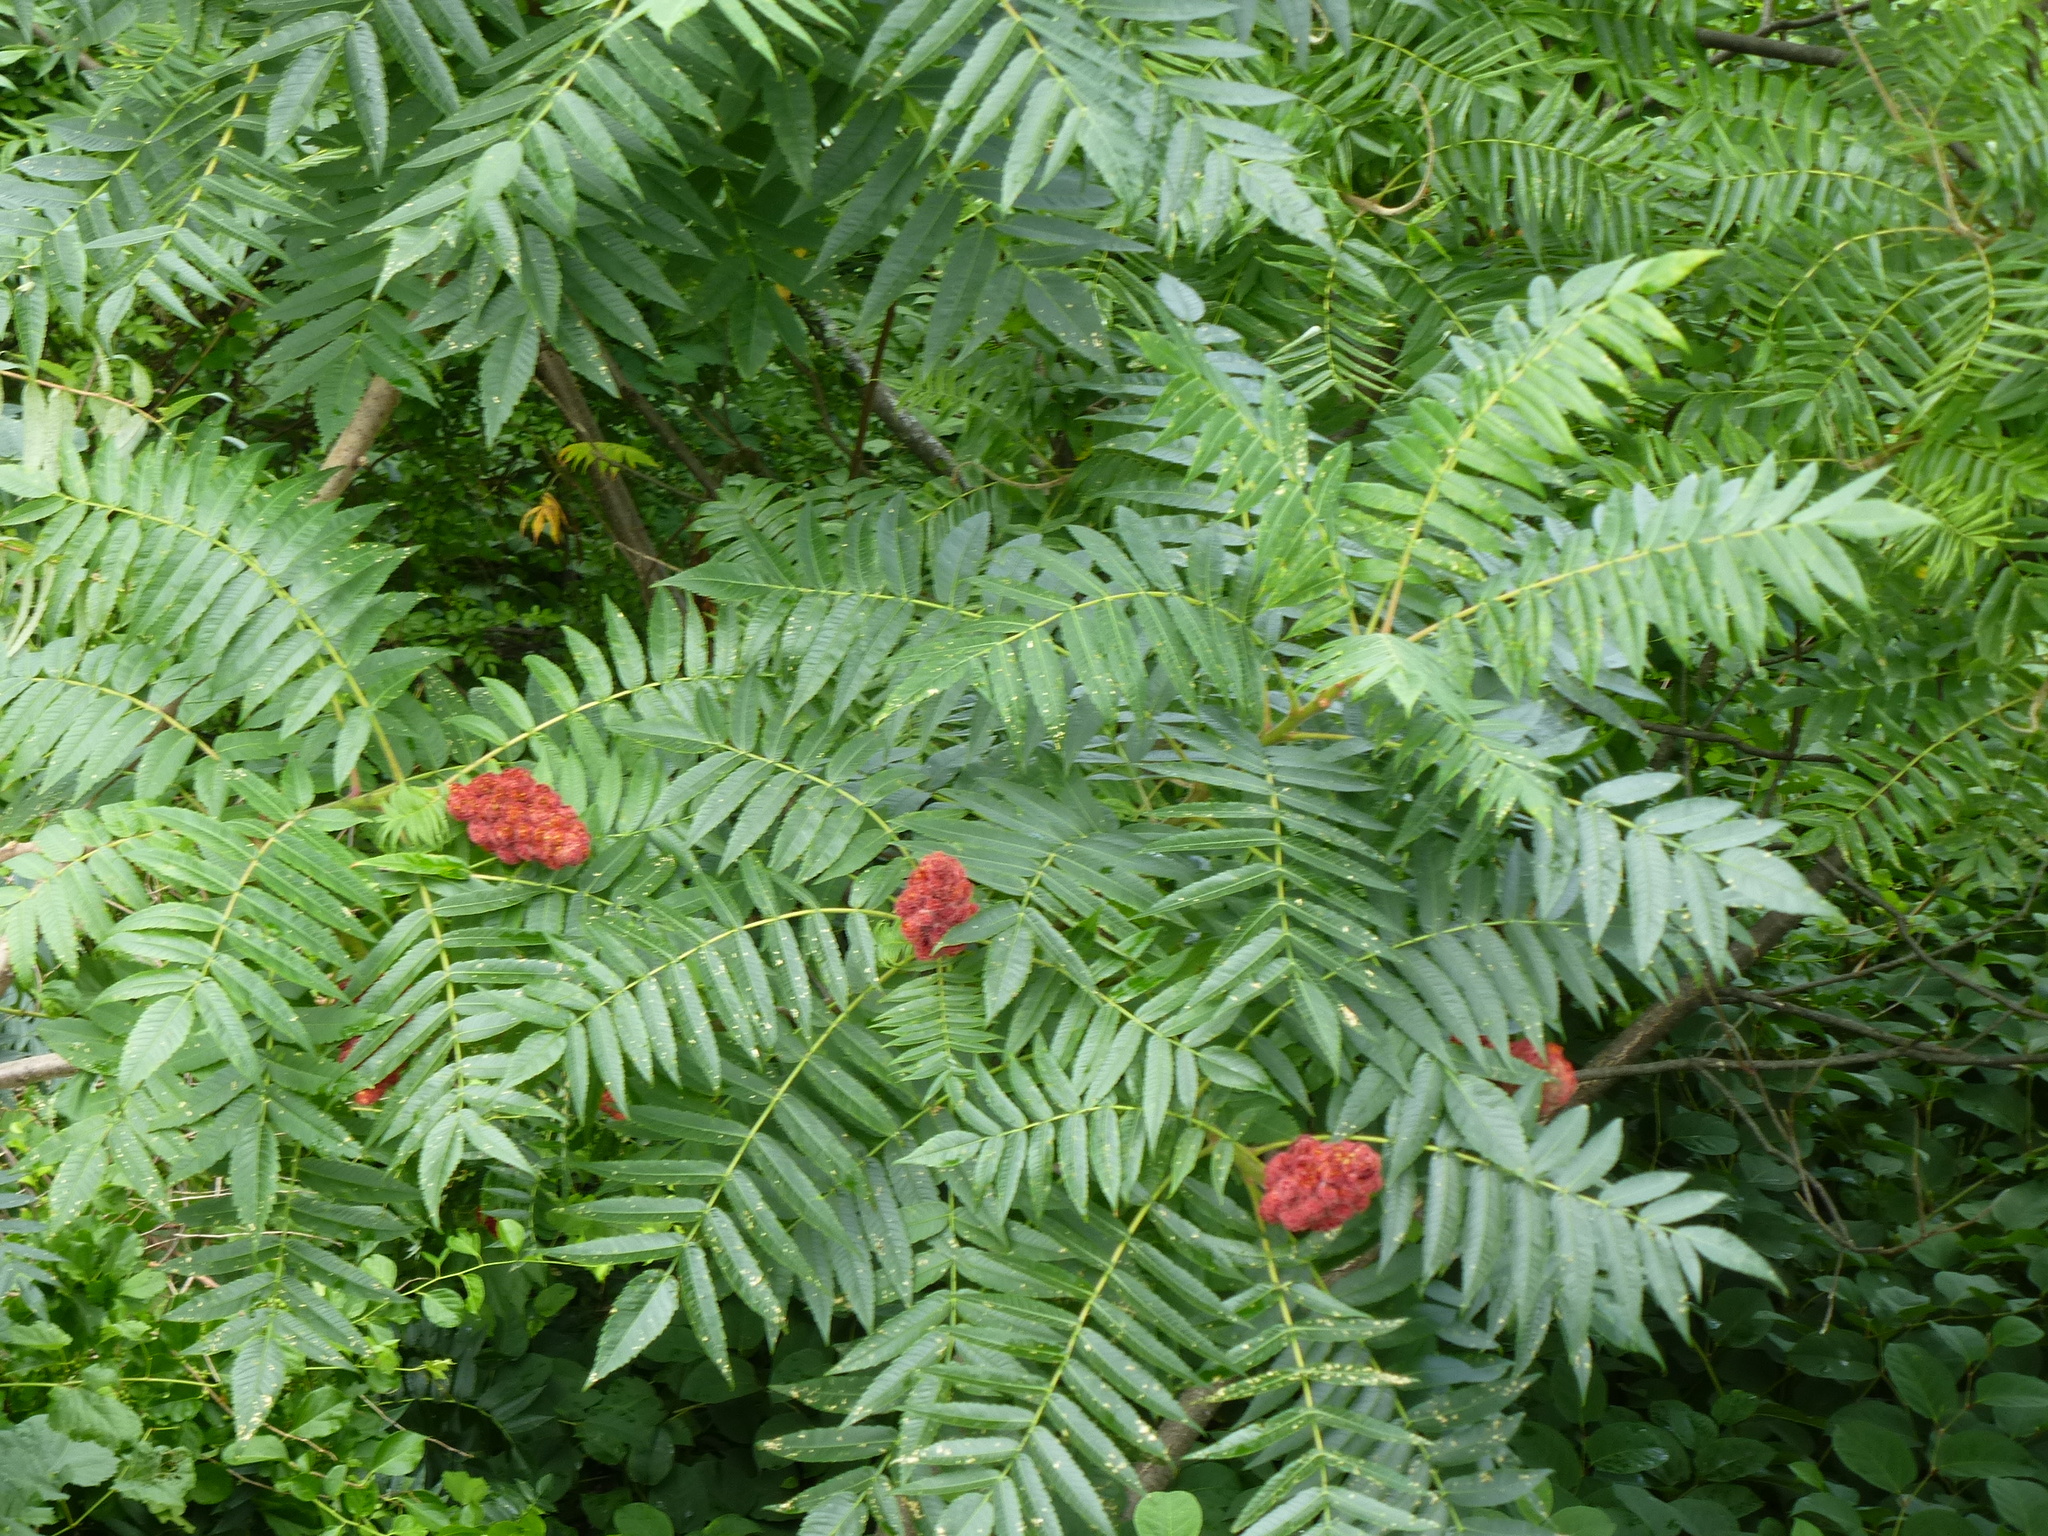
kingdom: Plantae
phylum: Tracheophyta
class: Magnoliopsida
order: Sapindales
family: Anacardiaceae
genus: Rhus
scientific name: Rhus typhina
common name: Staghorn sumac
